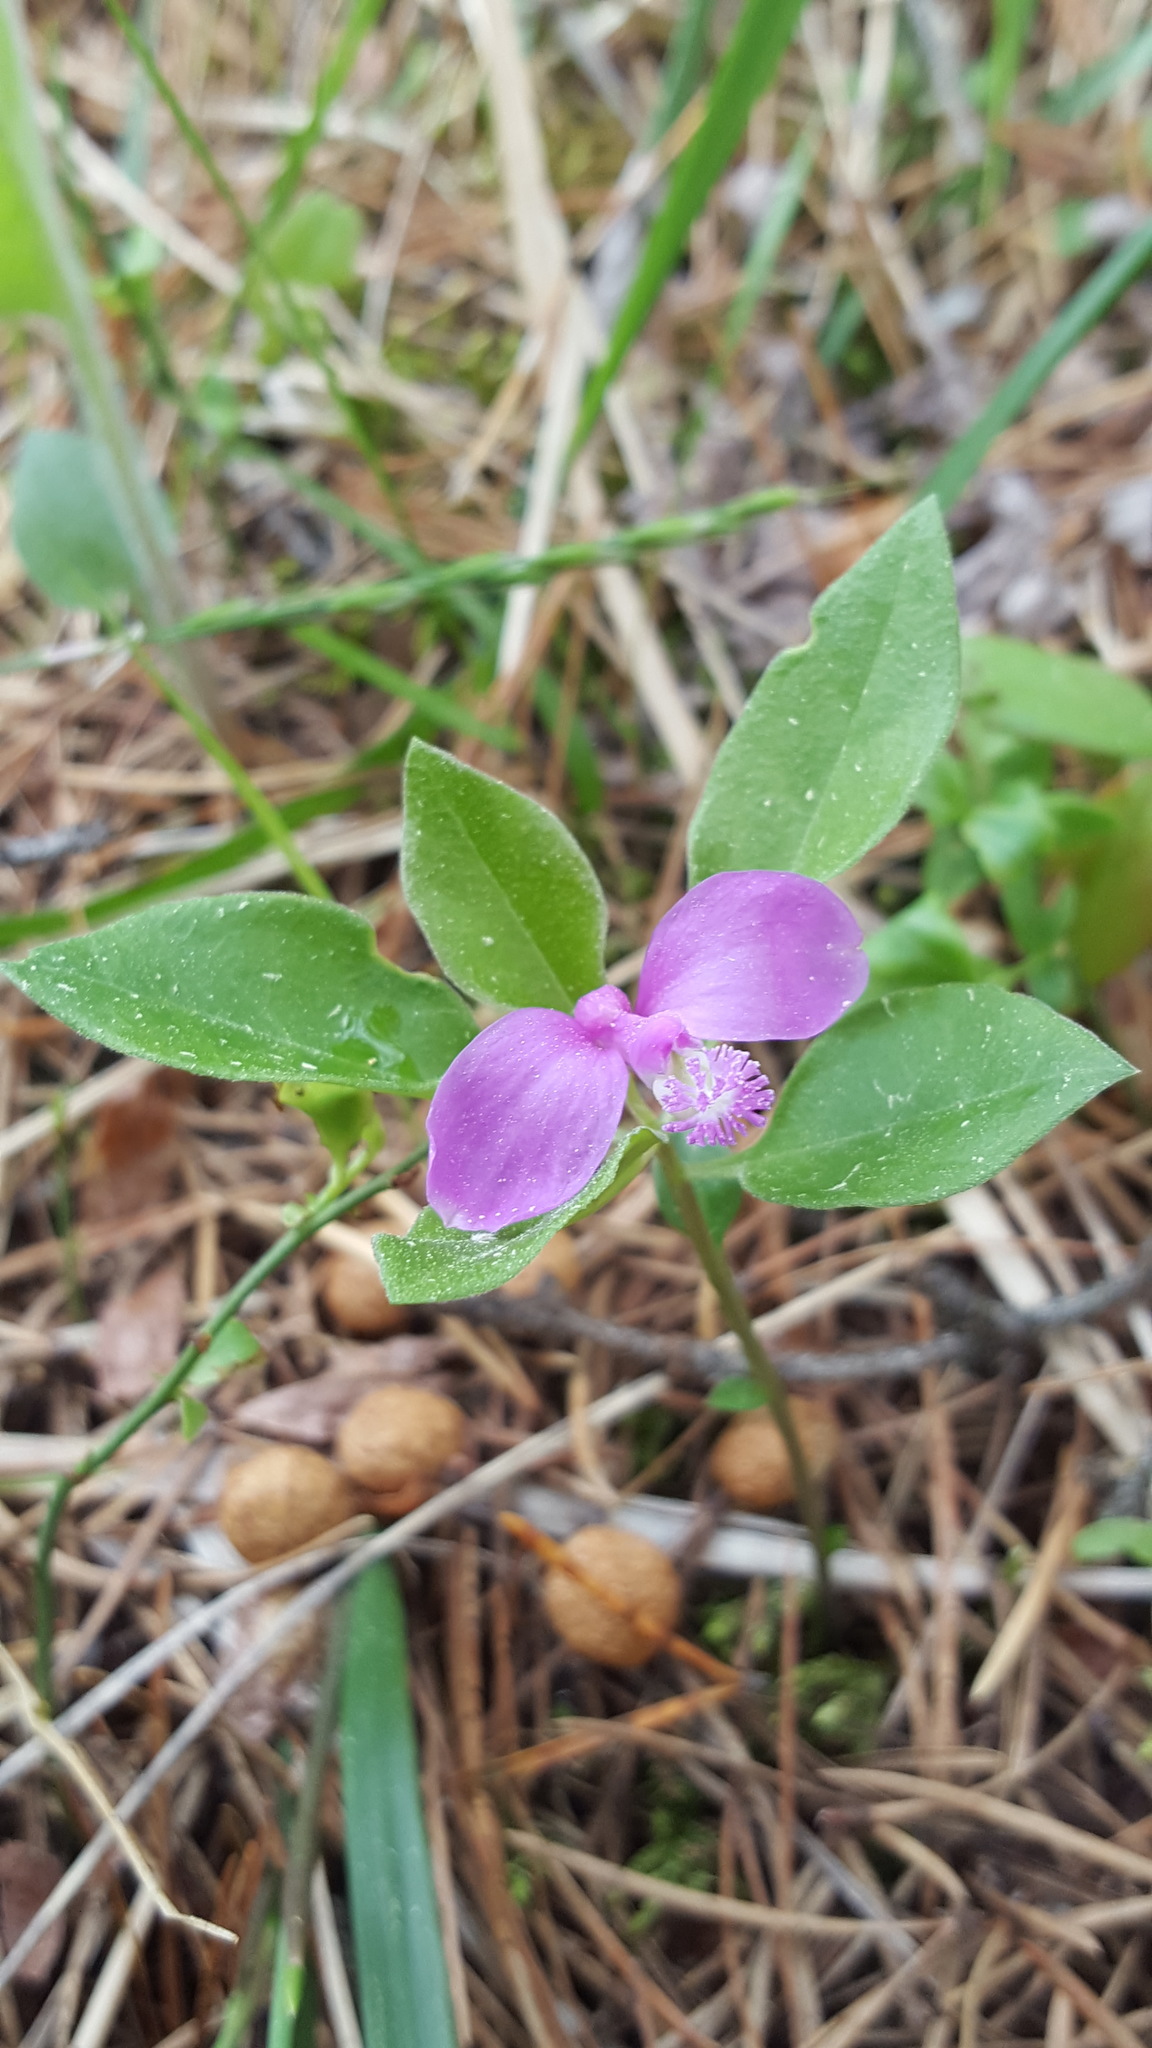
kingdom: Plantae
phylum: Tracheophyta
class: Magnoliopsida
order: Fabales
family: Polygalaceae
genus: Polygaloides
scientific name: Polygaloides paucifolia
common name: Bird-on-the-wing
